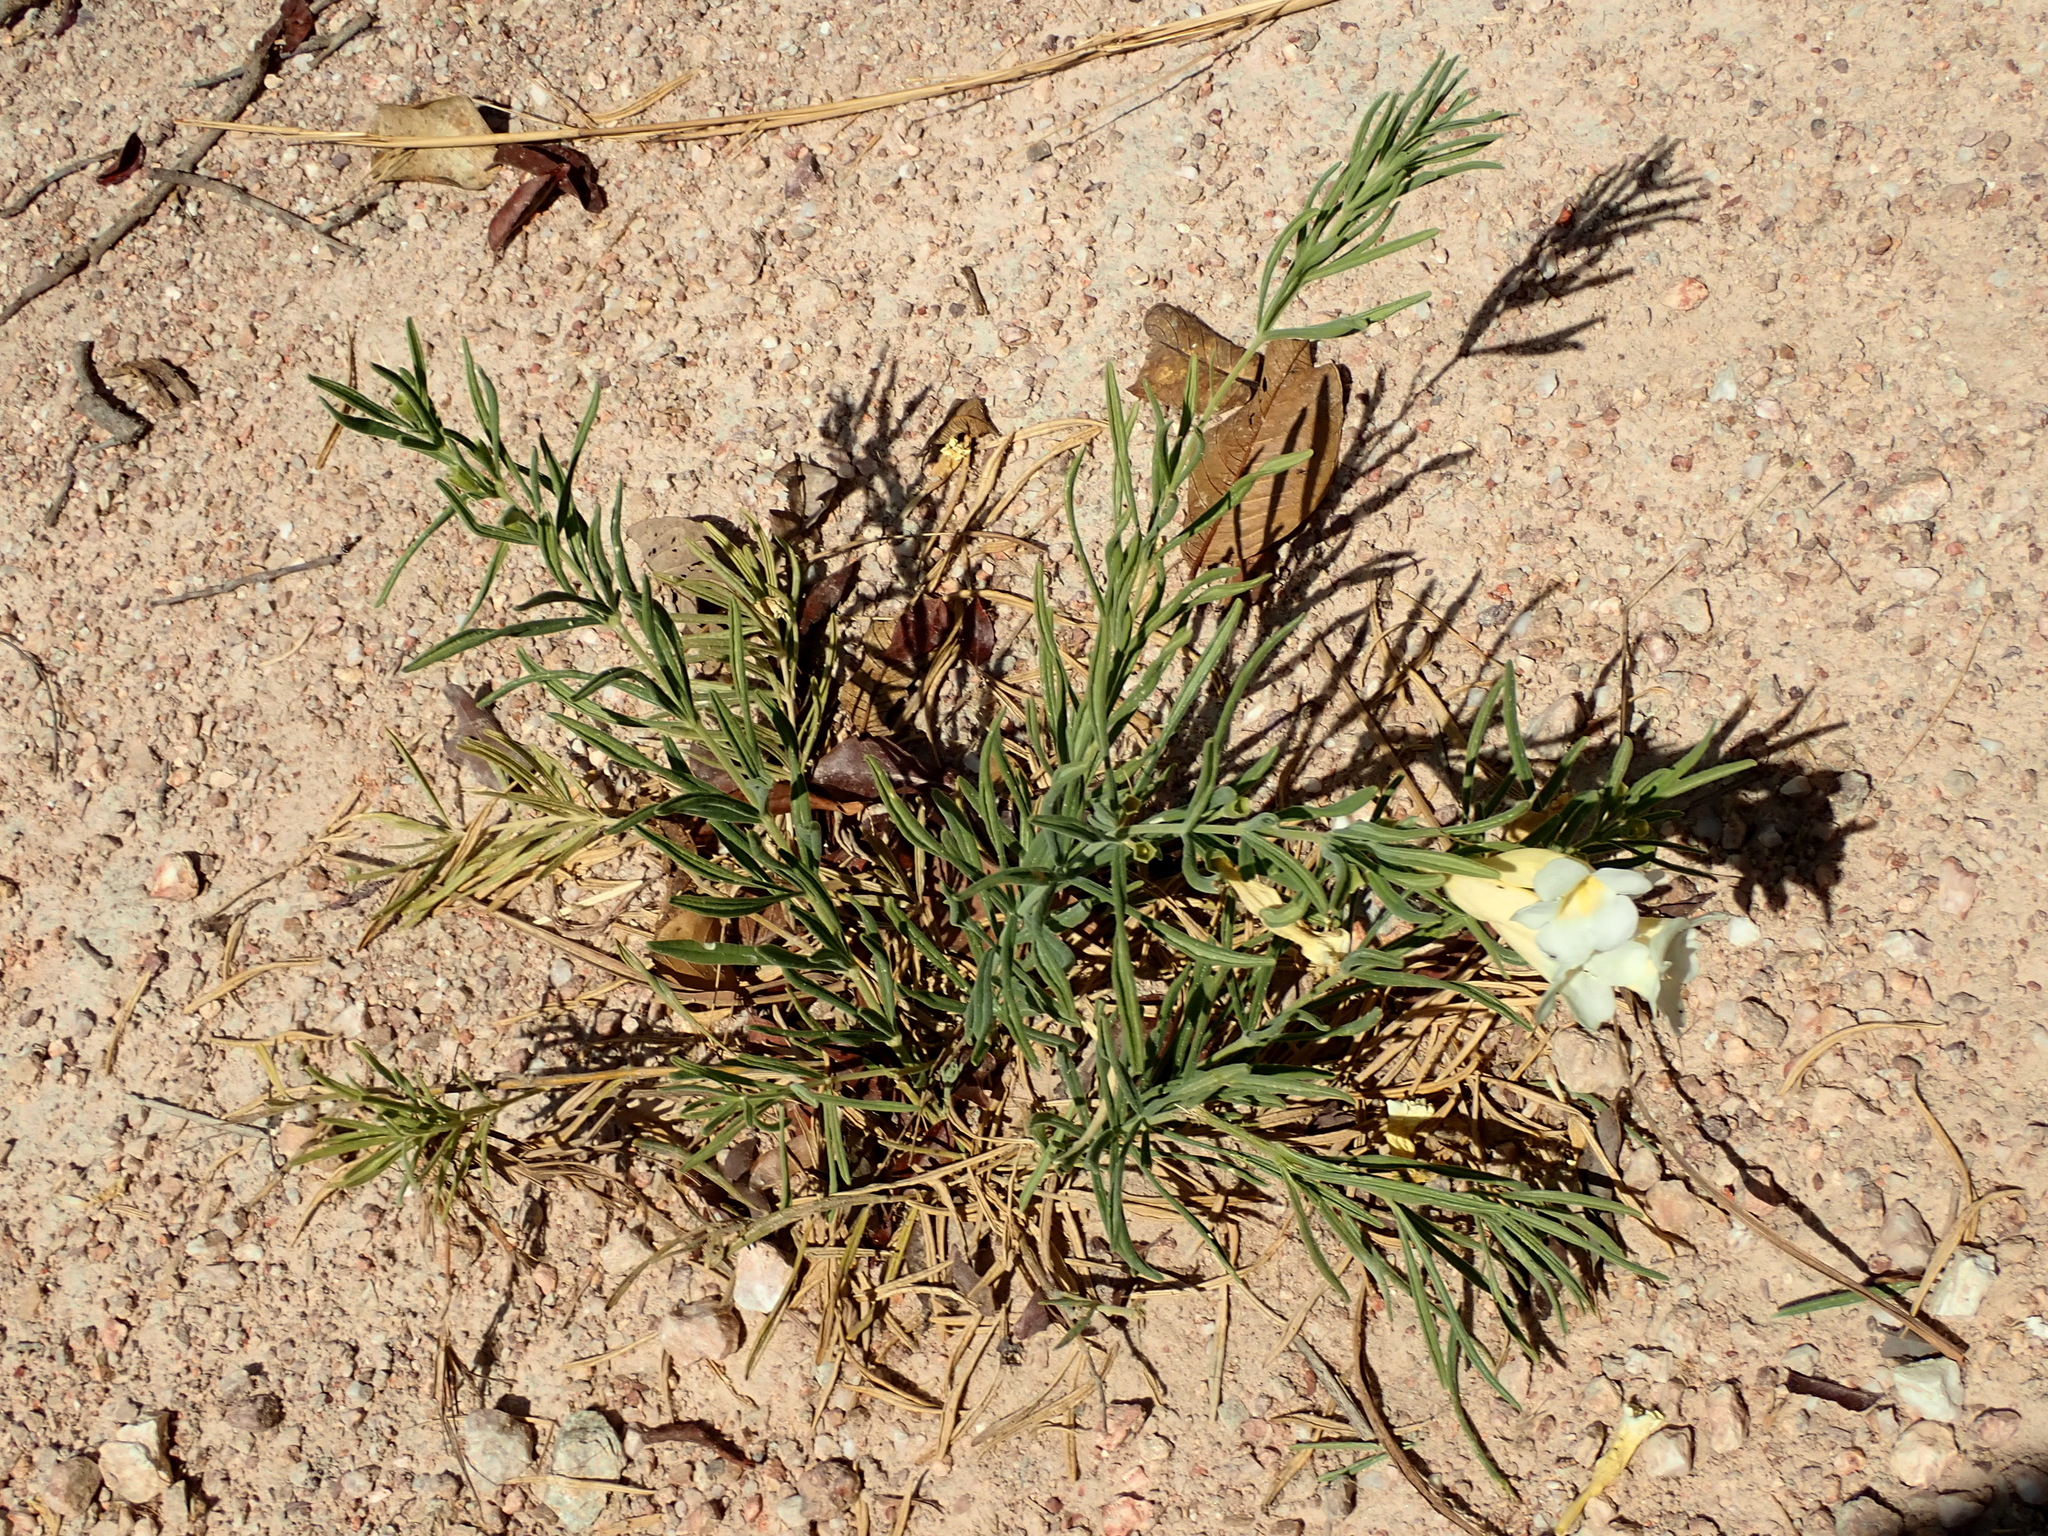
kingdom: Plantae
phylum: Tracheophyta
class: Magnoliopsida
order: Lamiales
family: Bignoniaceae
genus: Anemopaegma
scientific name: Anemopaegma arvense
